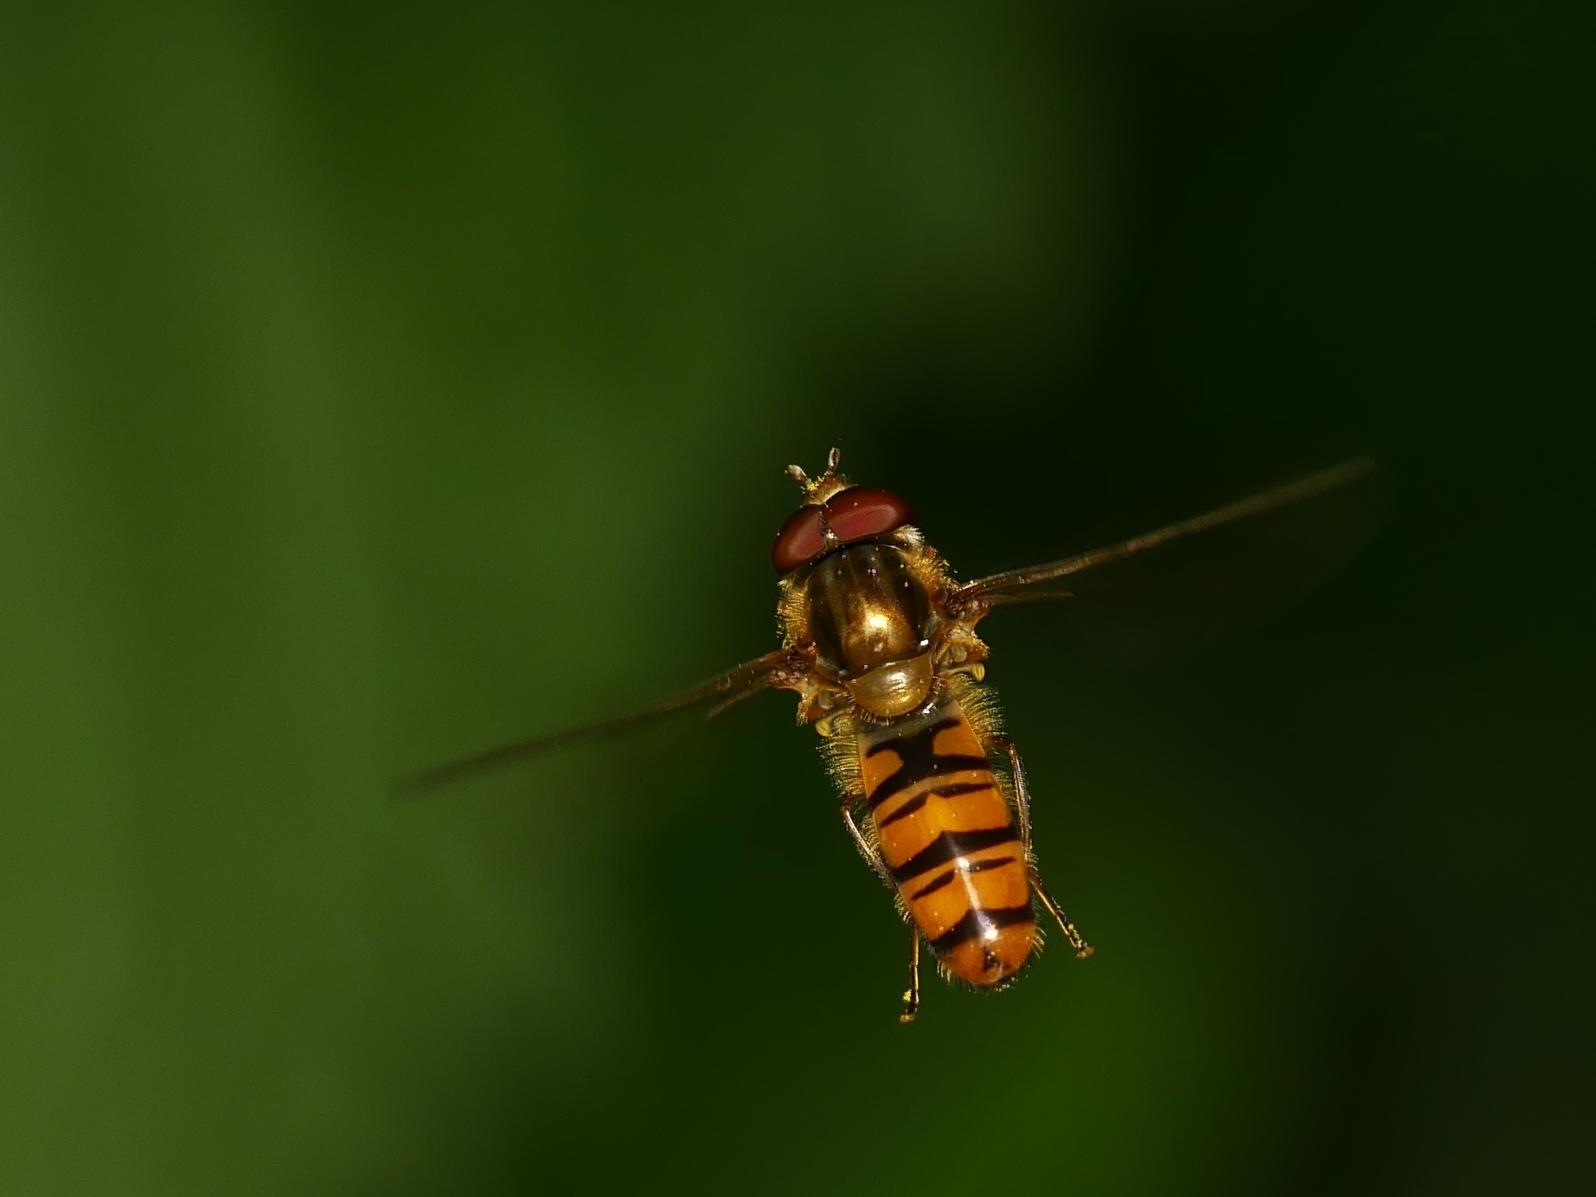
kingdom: Animalia
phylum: Arthropoda
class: Insecta
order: Diptera
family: Syrphidae
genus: Episyrphus
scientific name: Episyrphus balteatus
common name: Marmalade hoverfly
